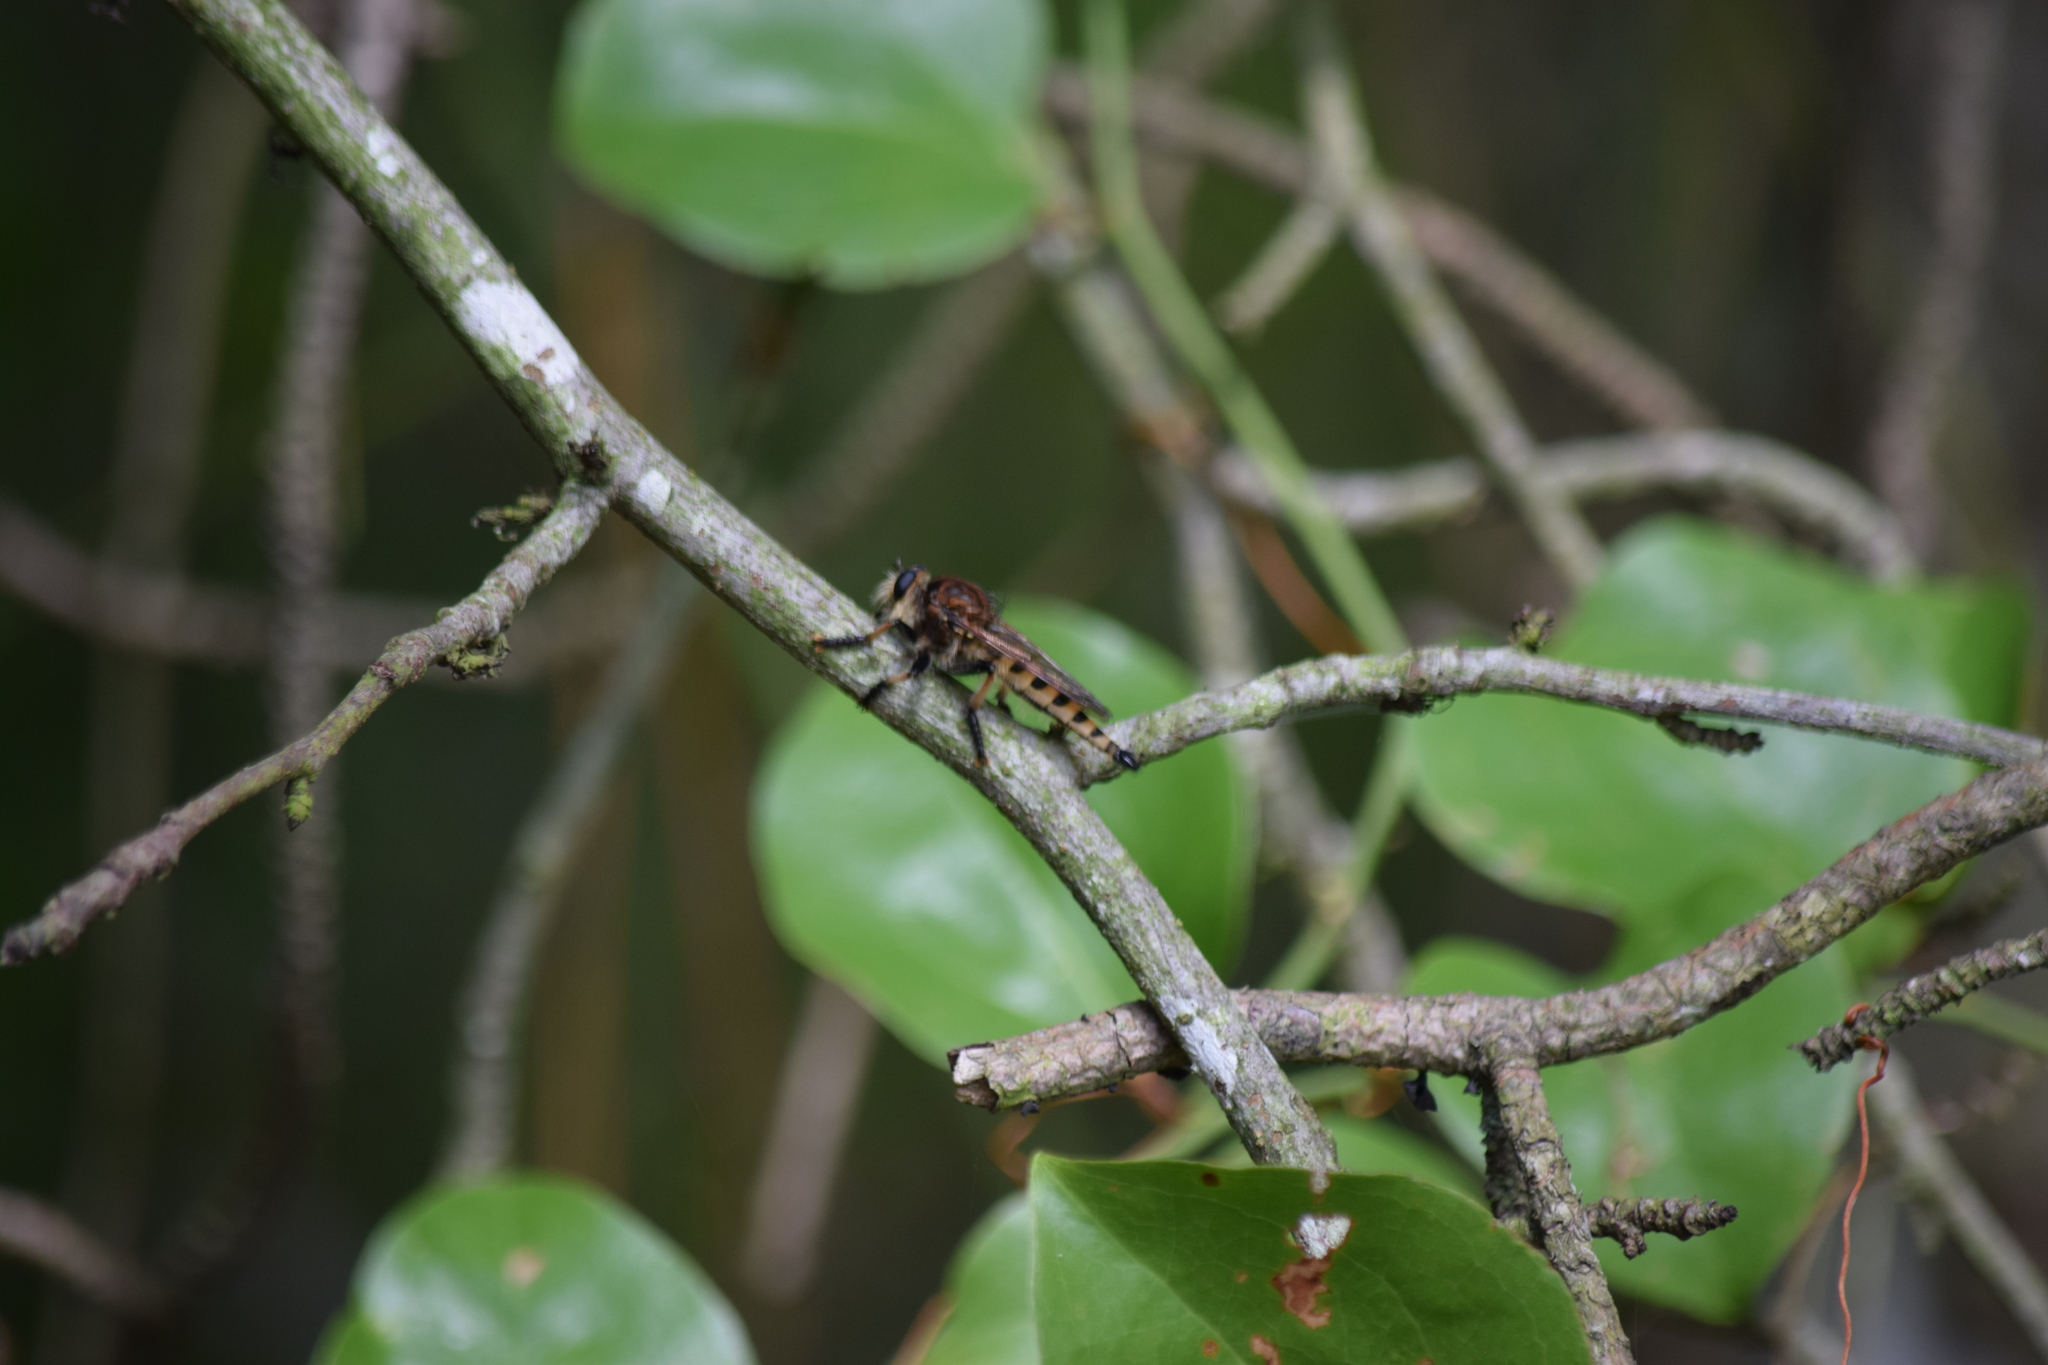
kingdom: Animalia
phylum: Arthropoda
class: Insecta
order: Diptera
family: Asilidae
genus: Promachus
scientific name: Promachus rufipes
